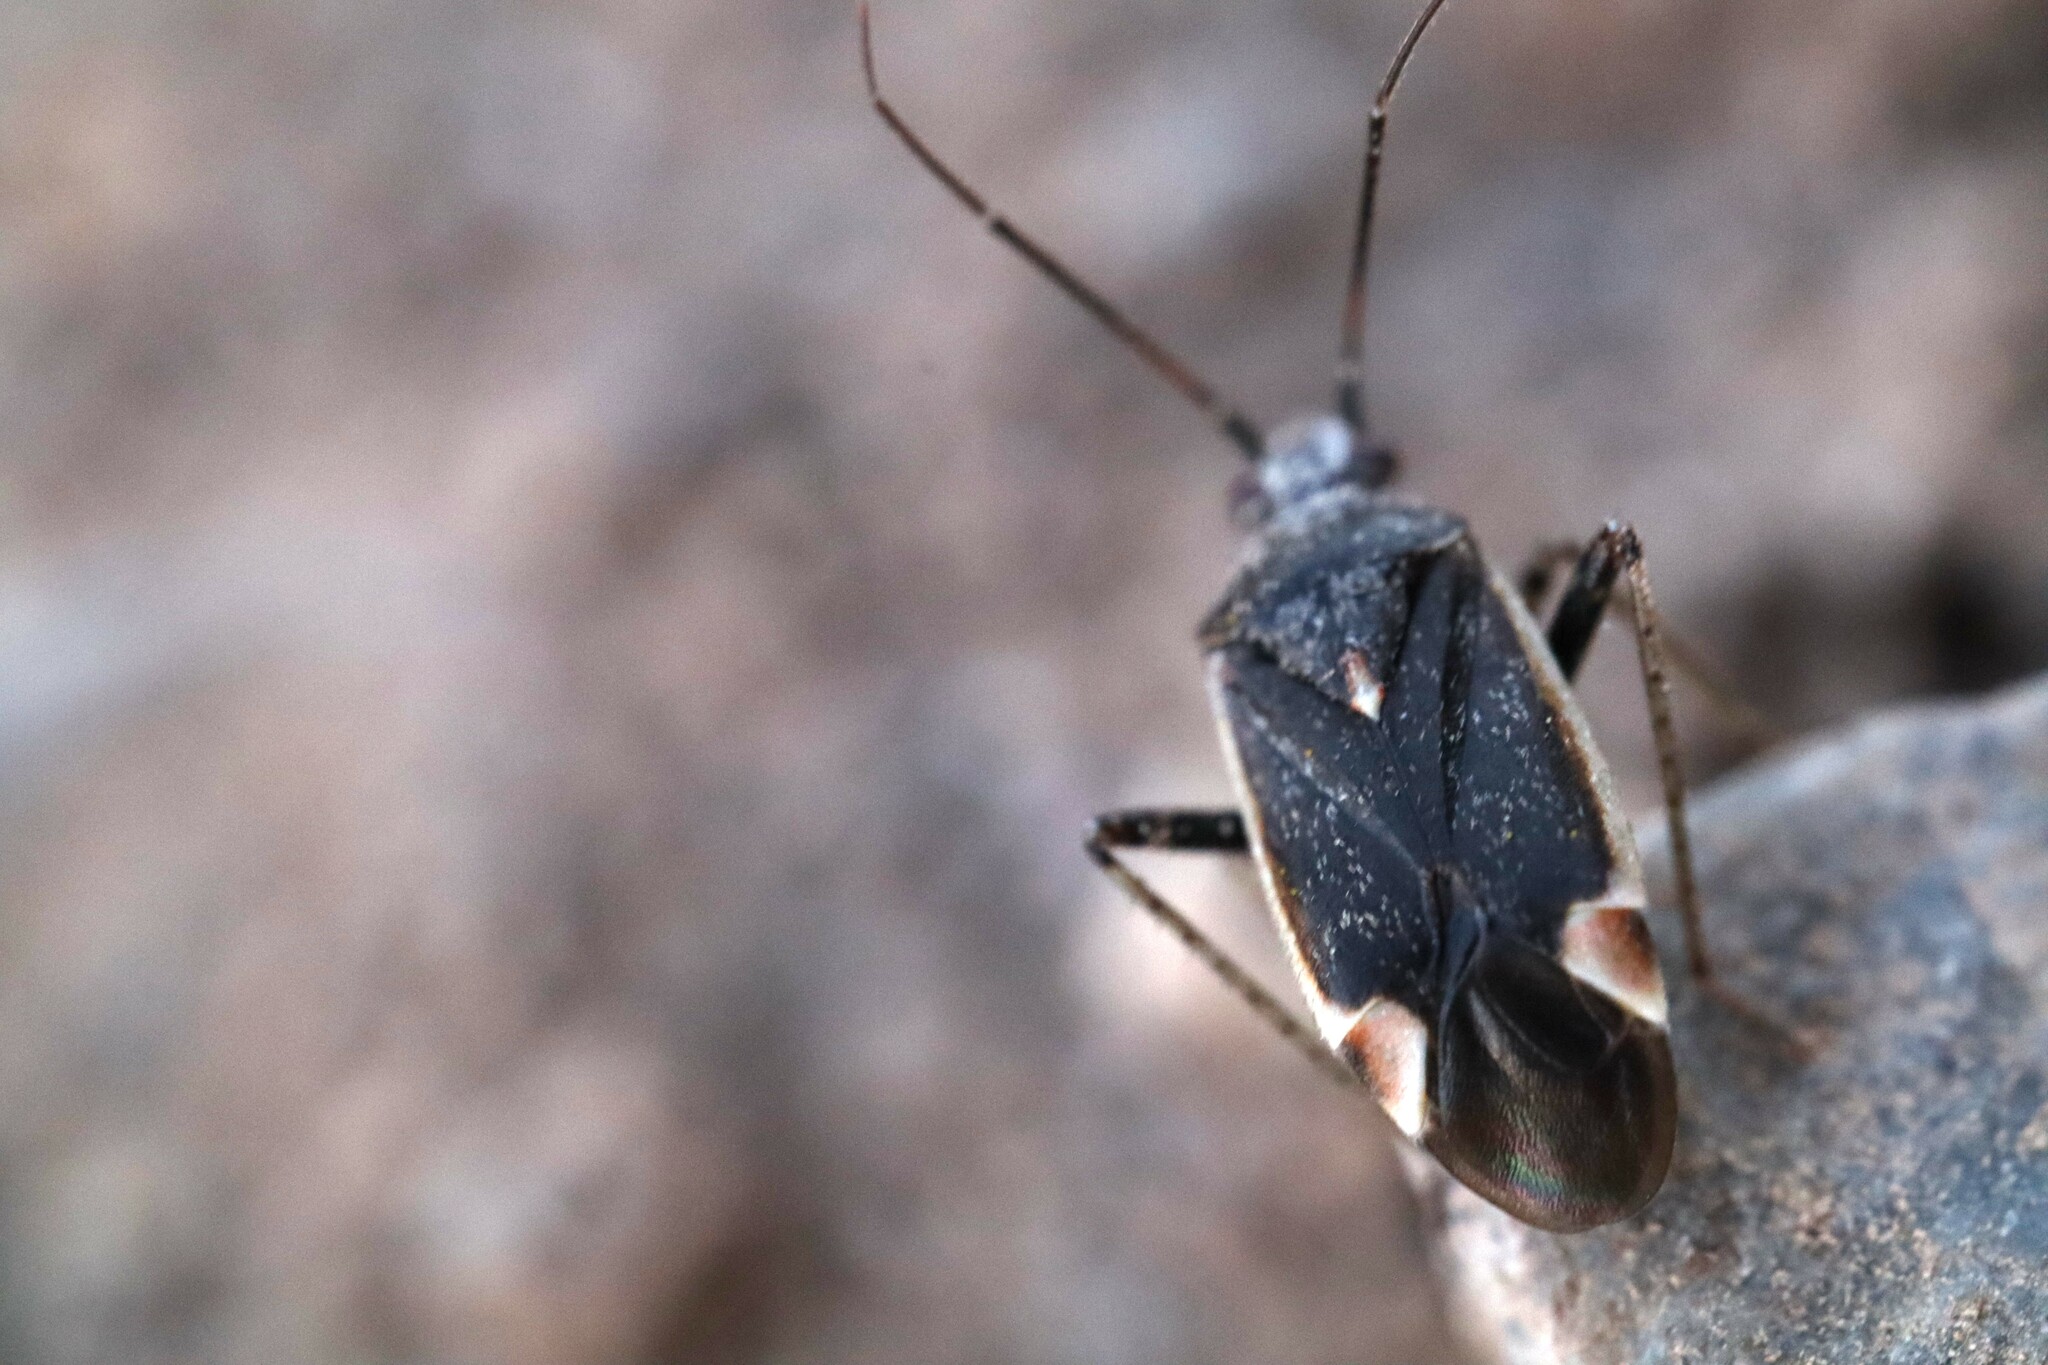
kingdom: Animalia
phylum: Arthropoda
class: Insecta
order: Hemiptera
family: Miridae
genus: Polymerus
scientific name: Polymerus
